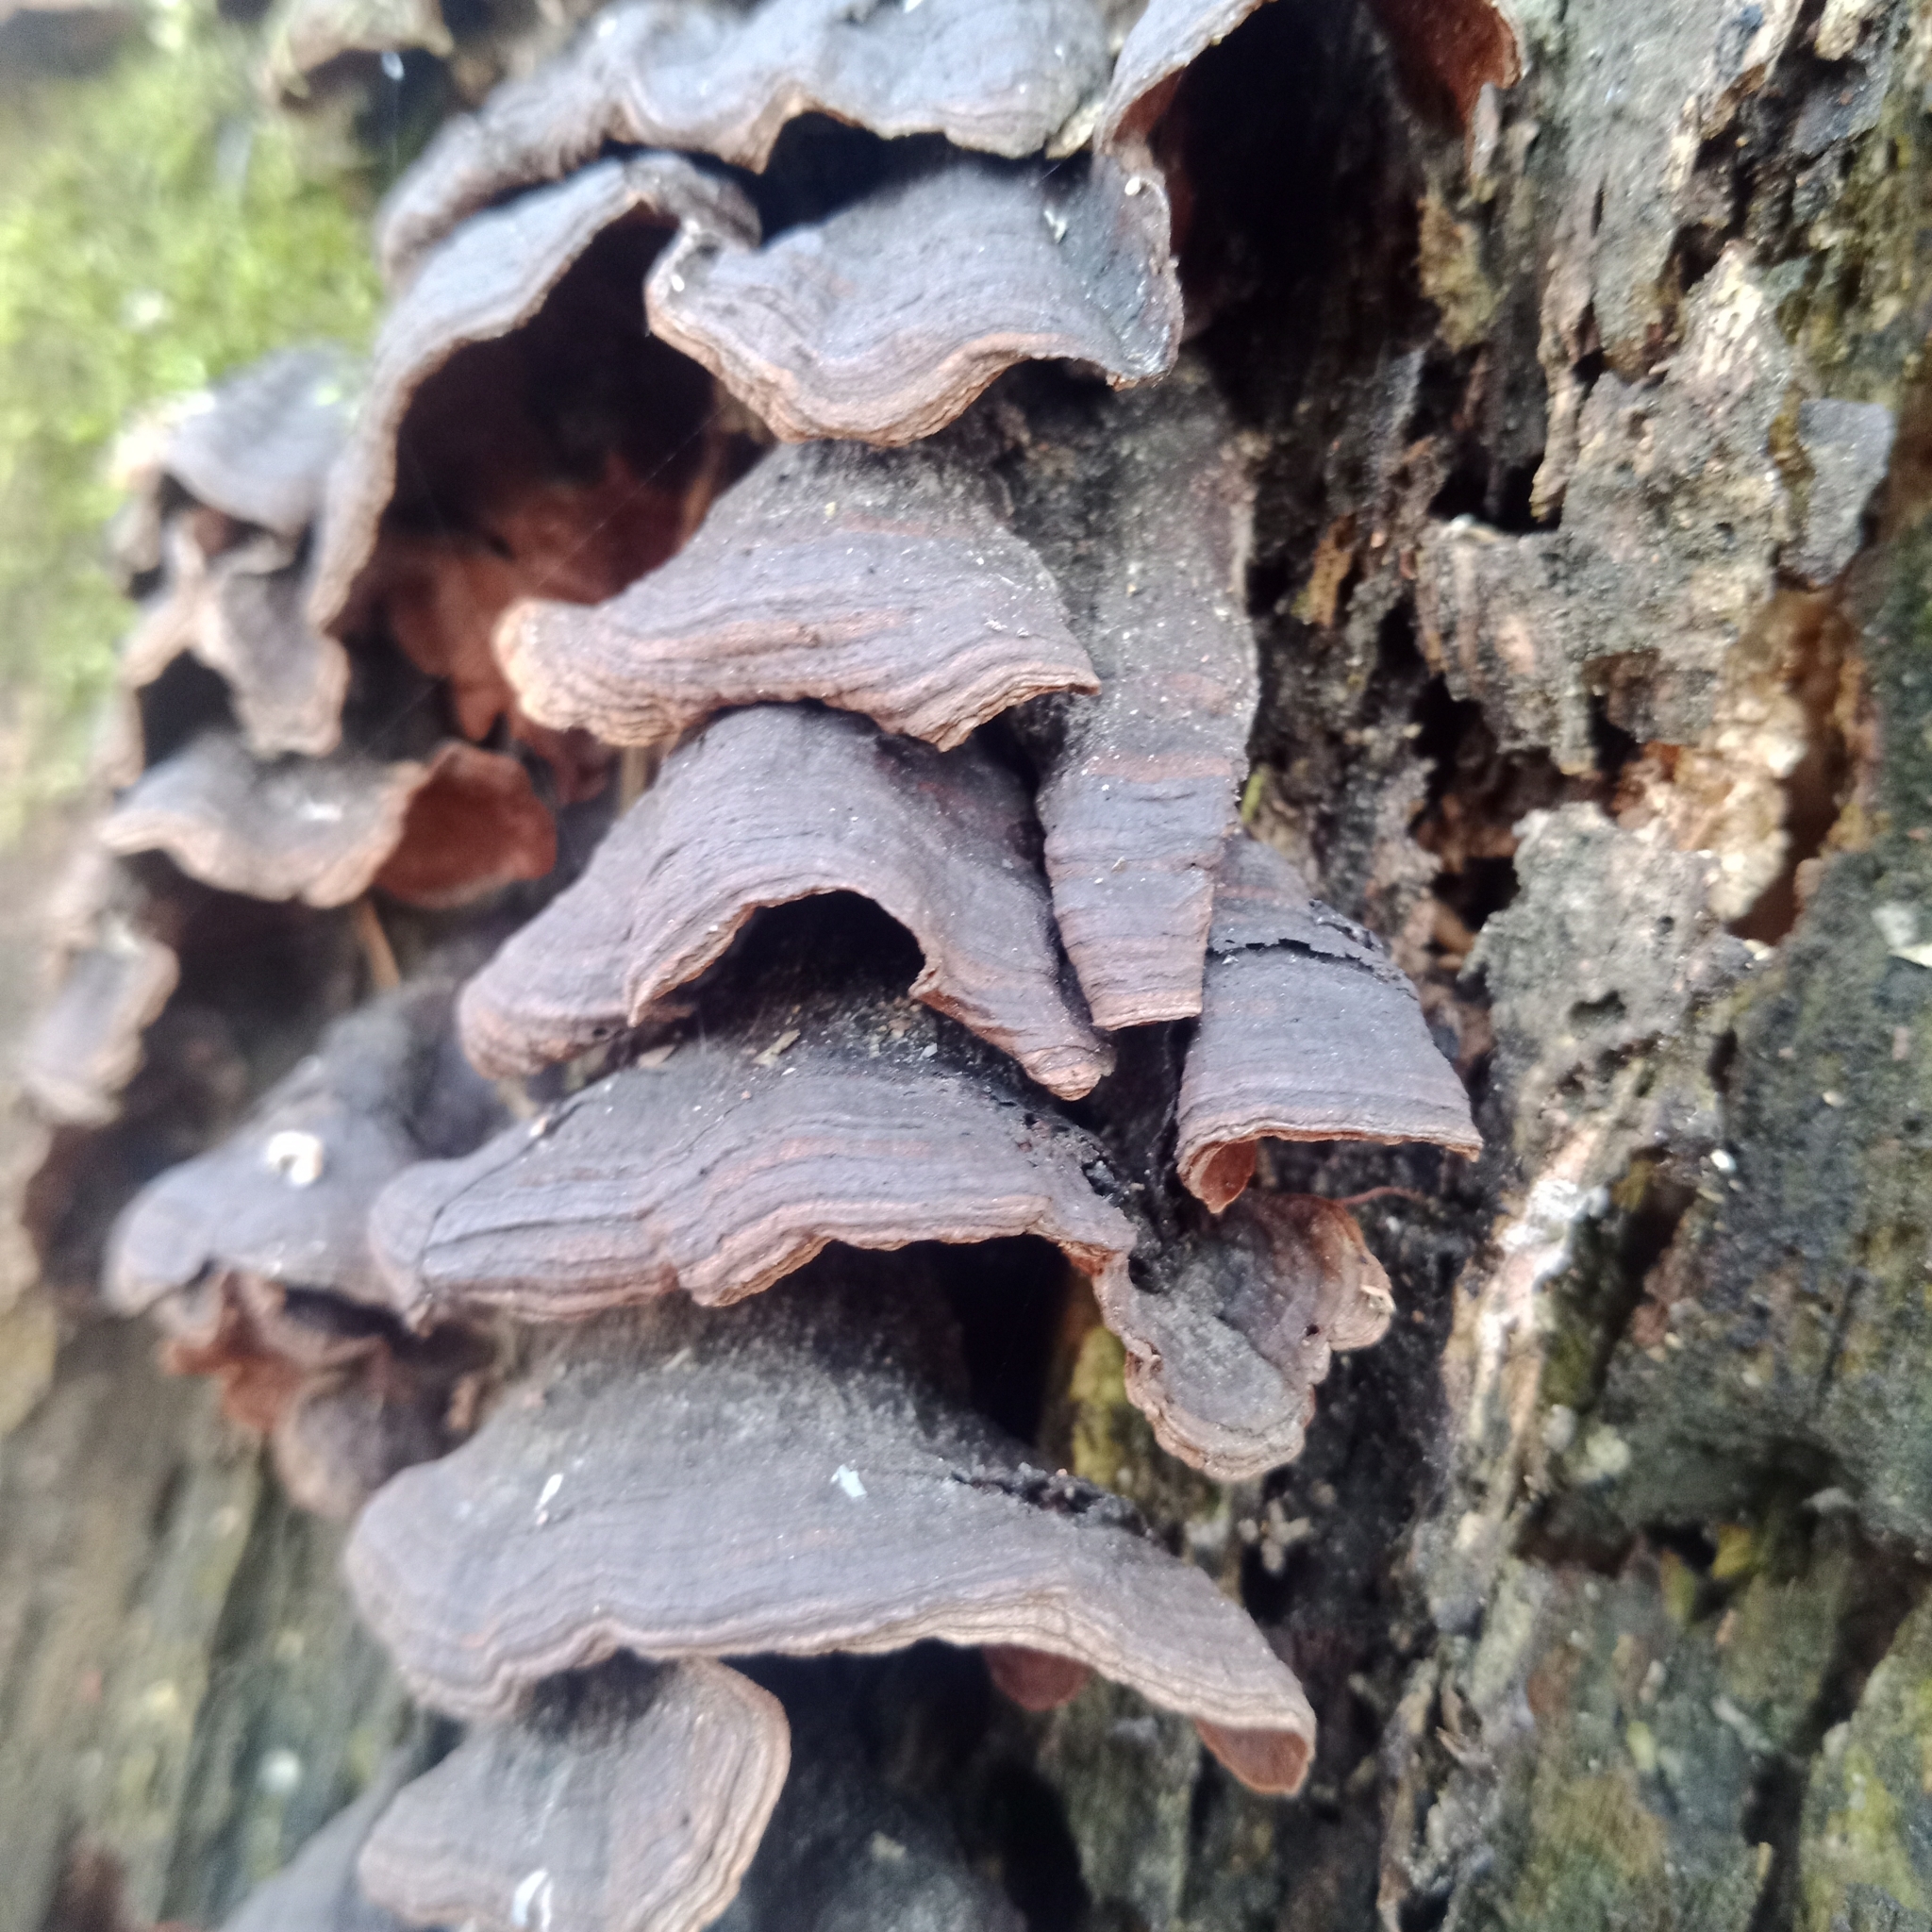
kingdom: Fungi
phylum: Basidiomycota
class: Agaricomycetes
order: Hymenochaetales
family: Hymenochaetaceae
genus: Hymenochaete
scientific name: Hymenochaete rubiginosa
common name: Oak curtain crust
